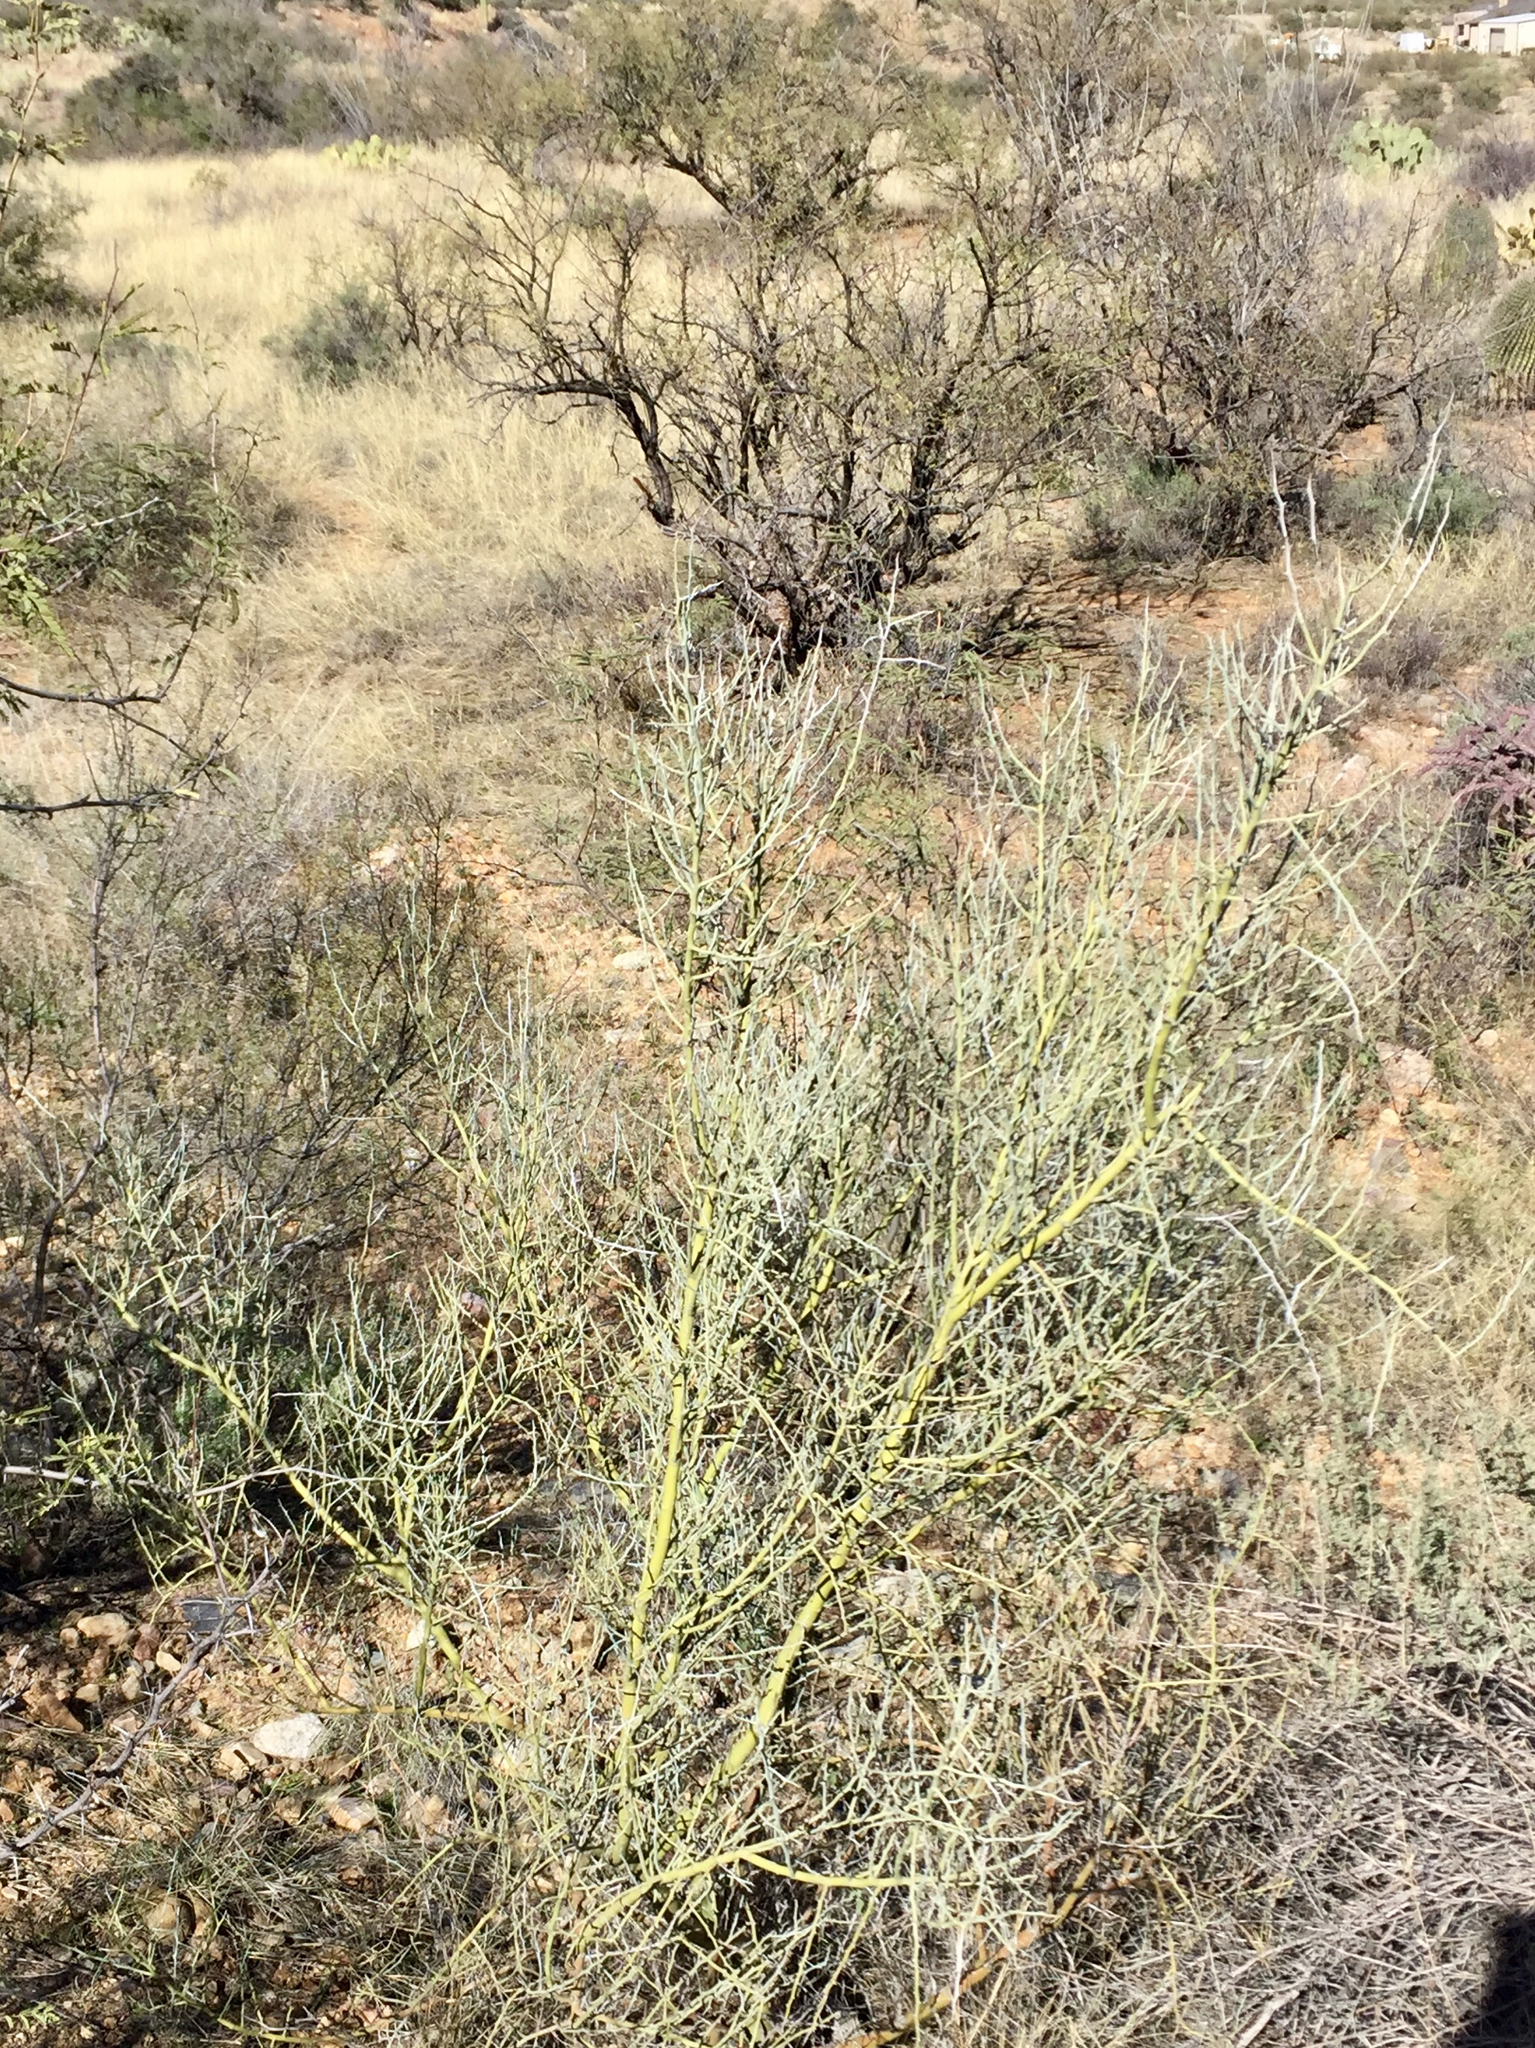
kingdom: Plantae
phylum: Tracheophyta
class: Magnoliopsida
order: Fabales
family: Fabaceae
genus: Parkinsonia
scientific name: Parkinsonia florida
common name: Blue paloverde
